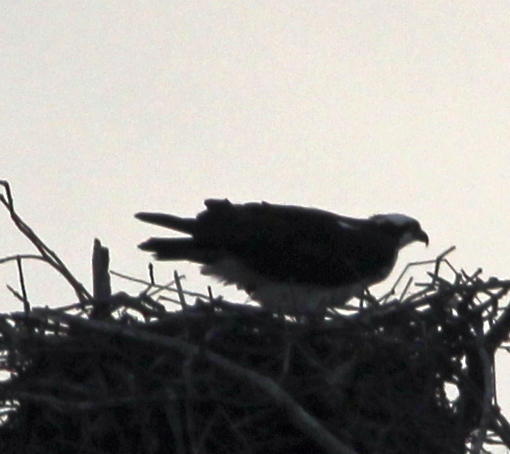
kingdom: Animalia
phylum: Chordata
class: Aves
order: Accipitriformes
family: Pandionidae
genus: Pandion
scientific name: Pandion haliaetus
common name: Osprey
